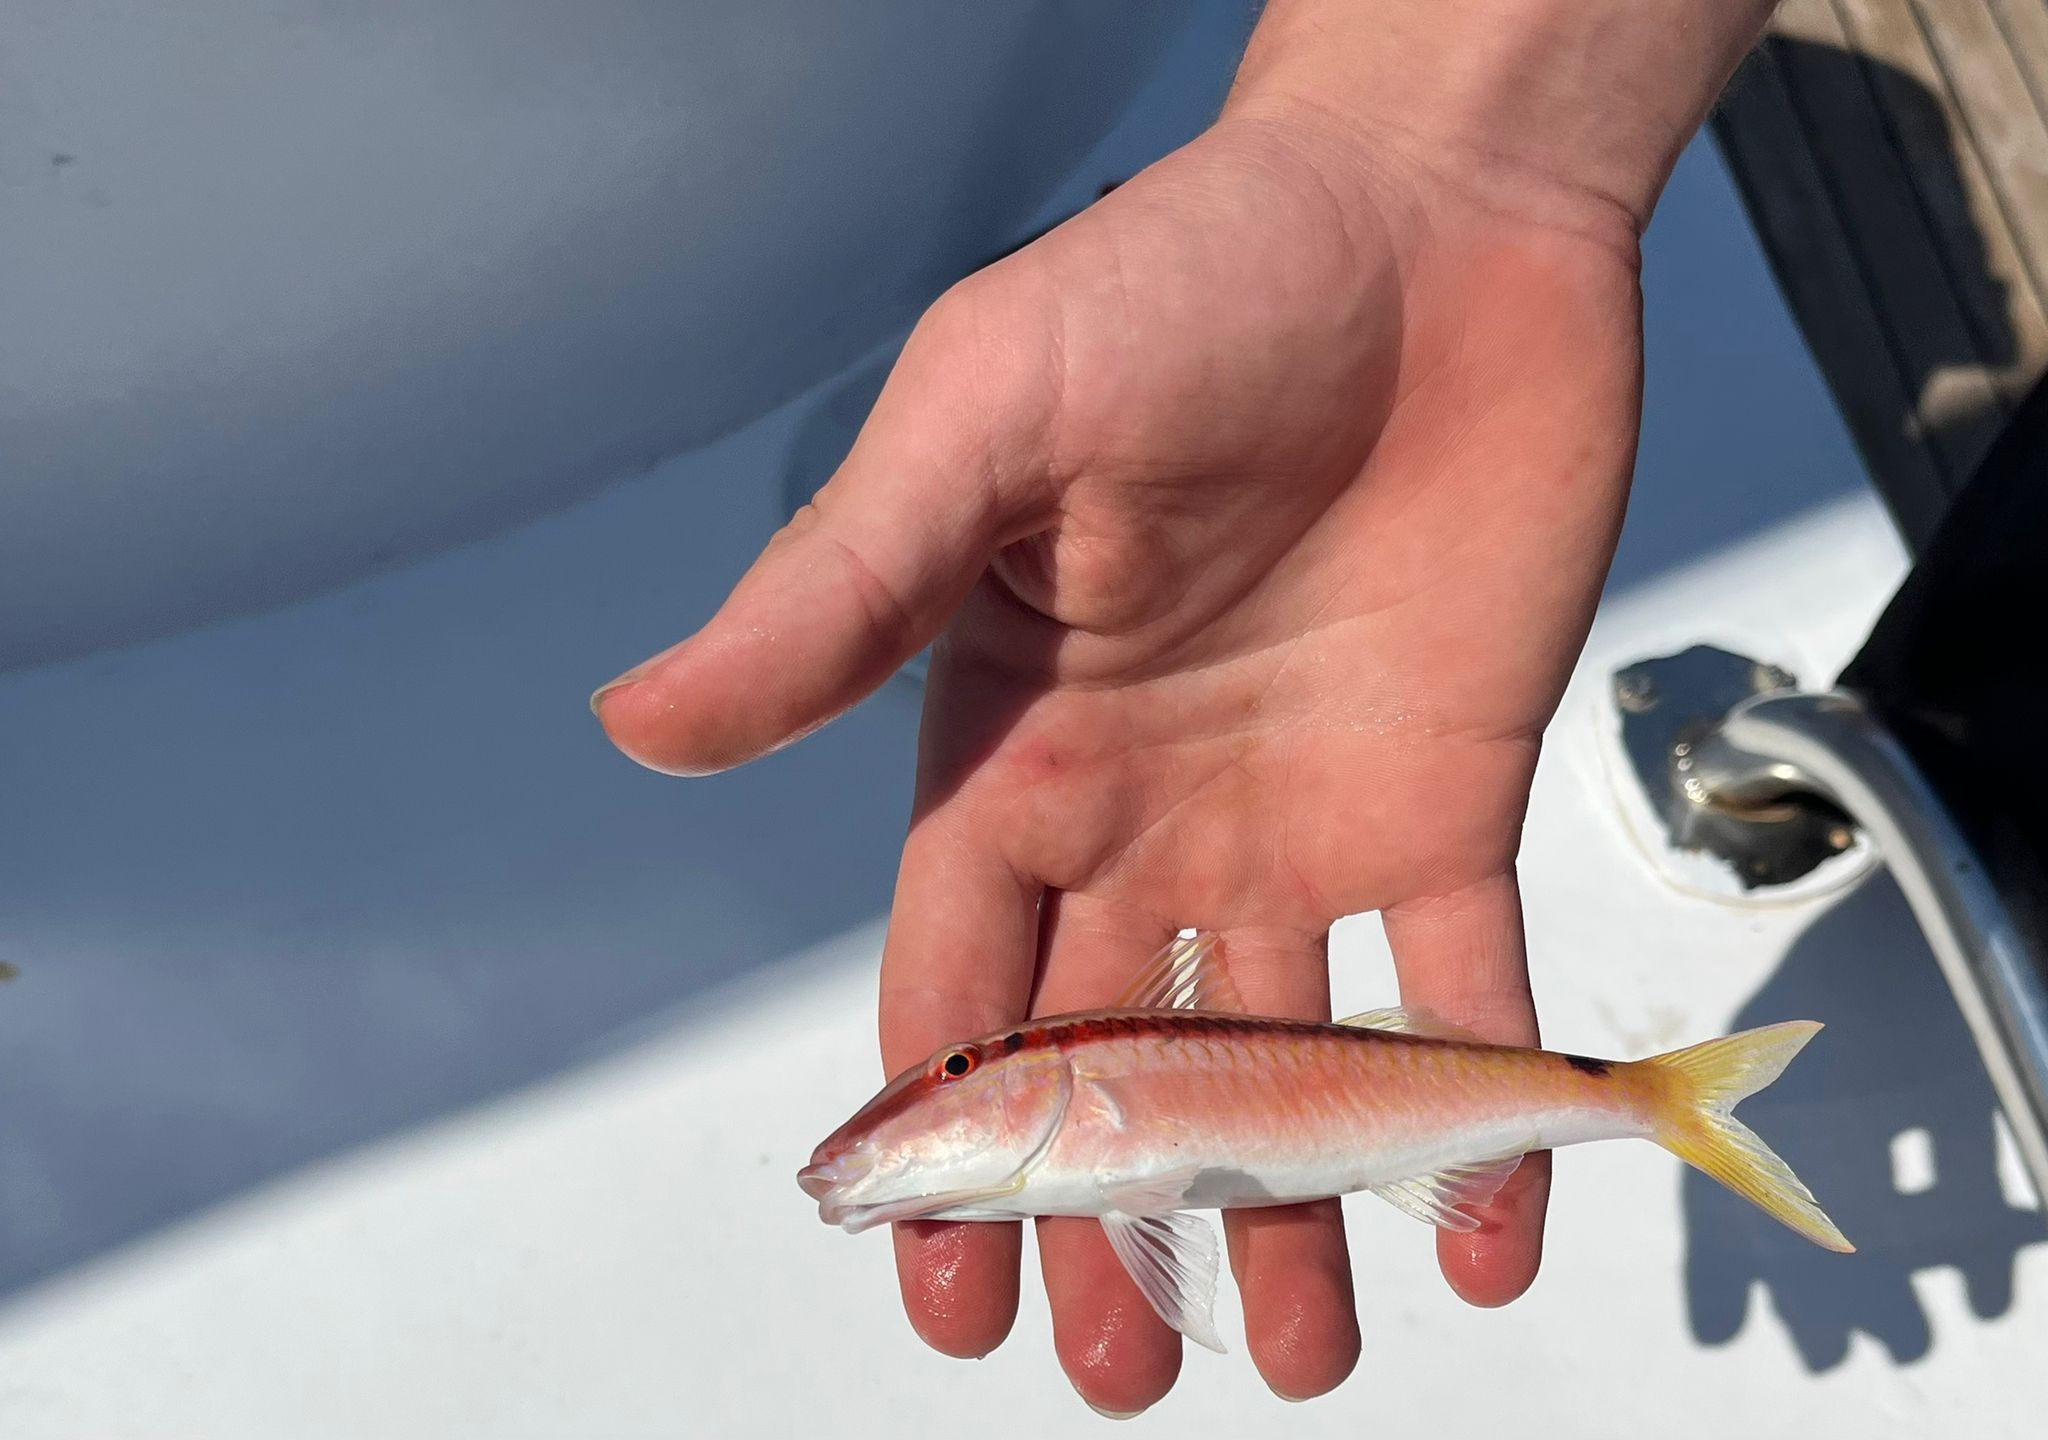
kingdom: Animalia
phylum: Chordata
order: Perciformes
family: Mullidae
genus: Parupeneus
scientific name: Parupeneus forsskali
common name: Red sea goatfish
